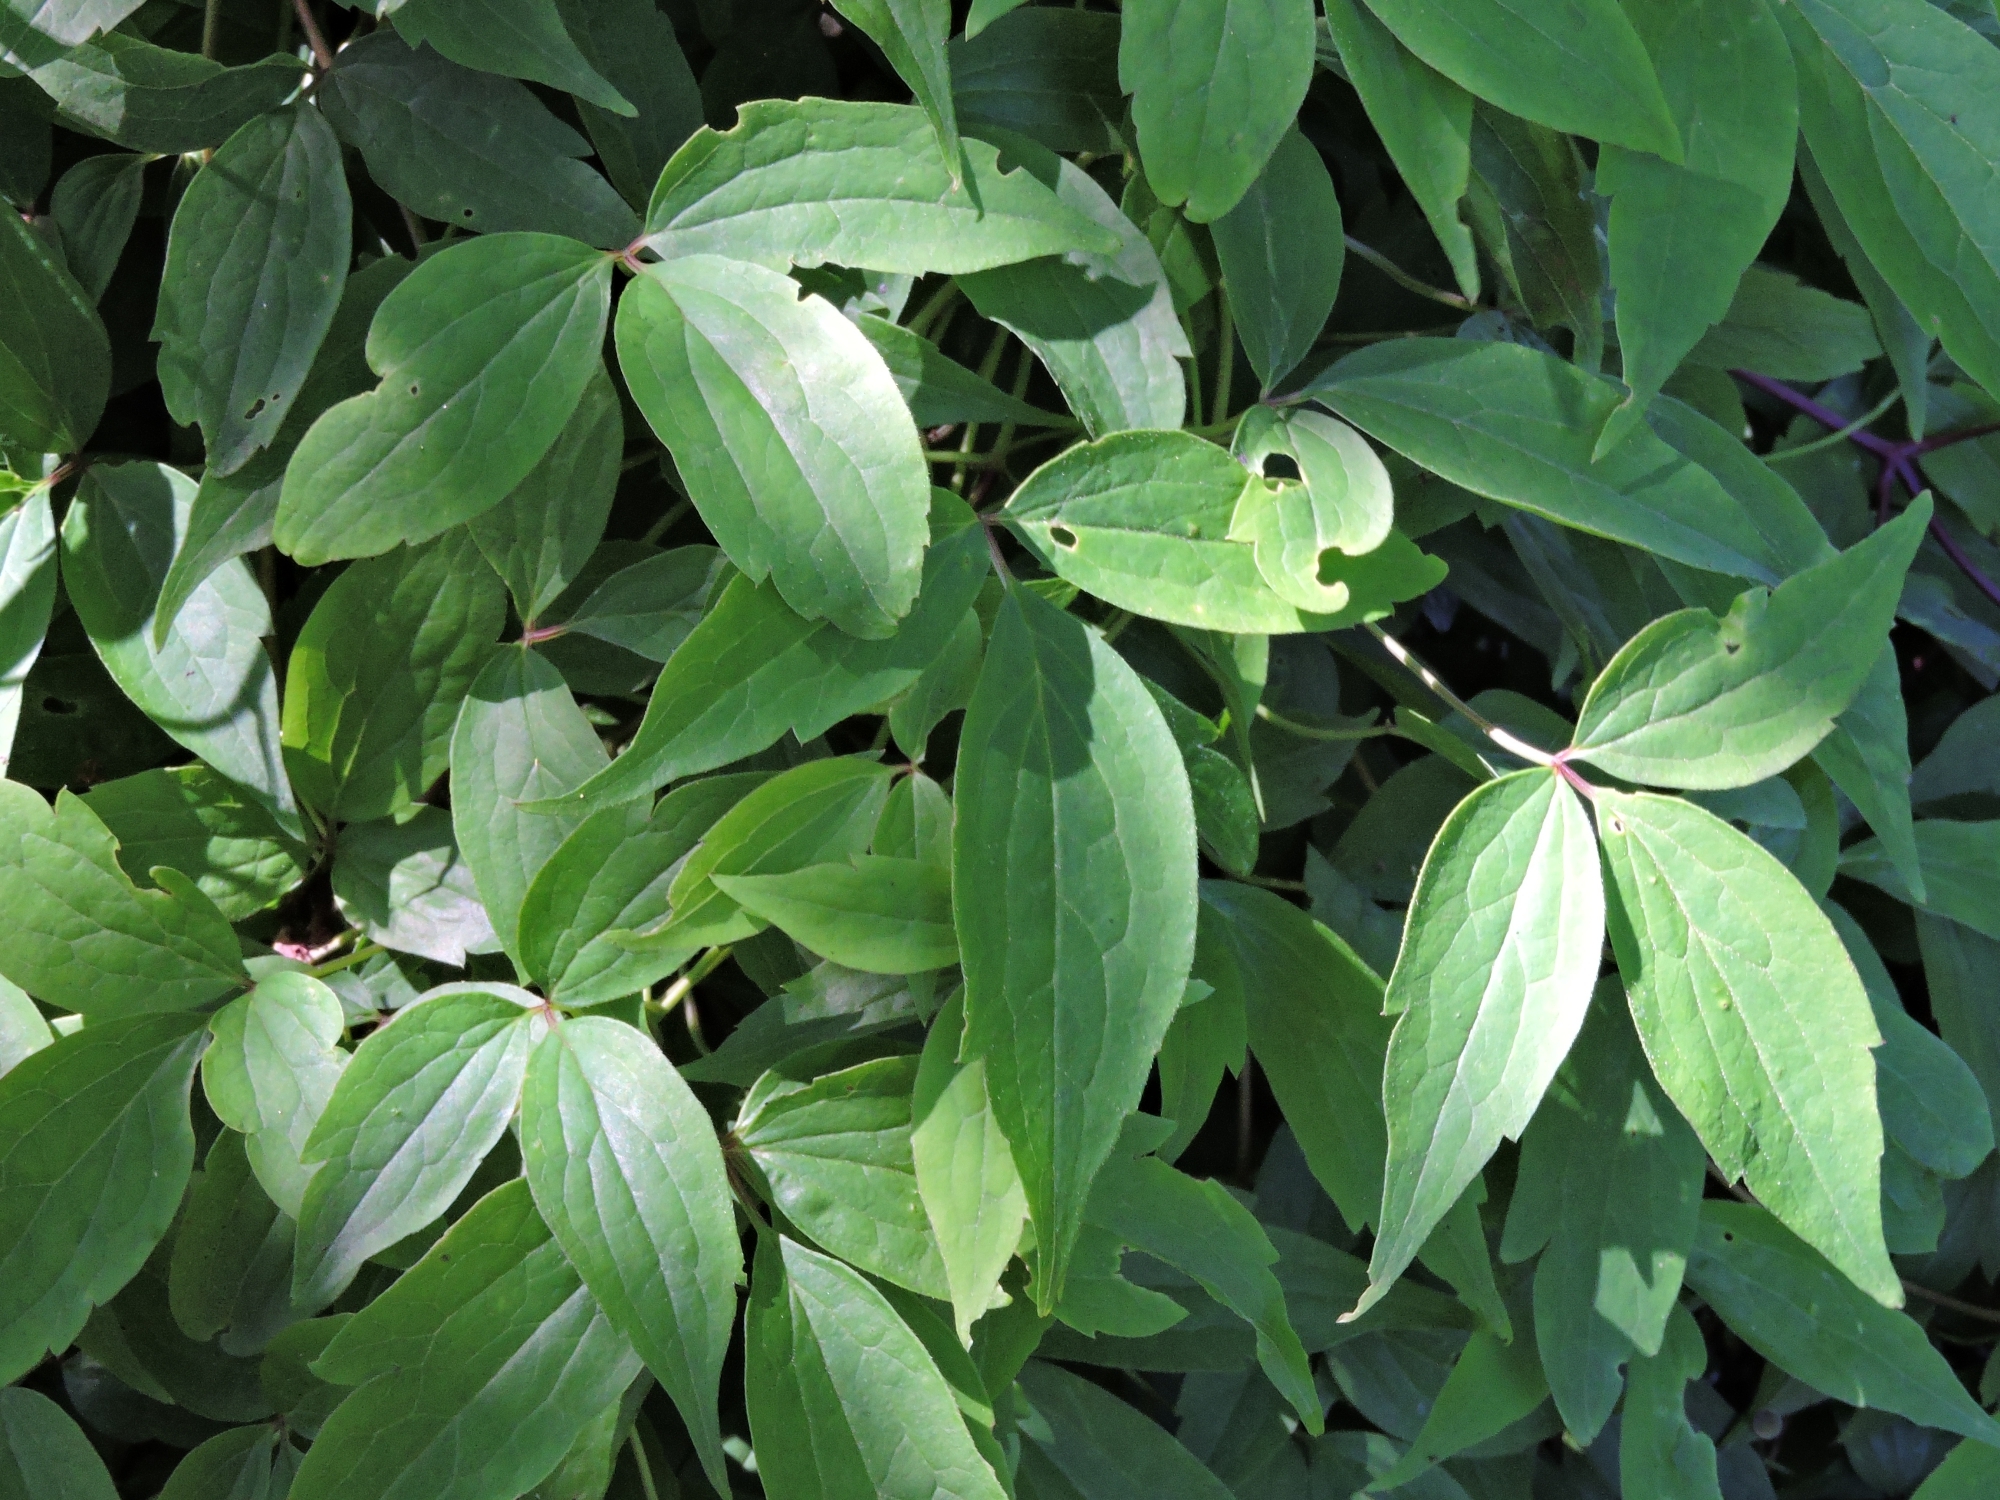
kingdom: Plantae
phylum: Tracheophyta
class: Magnoliopsida
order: Ranunculales
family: Ranunculaceae
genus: Clematis
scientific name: Clematis vitalba
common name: Evergreen clematis
